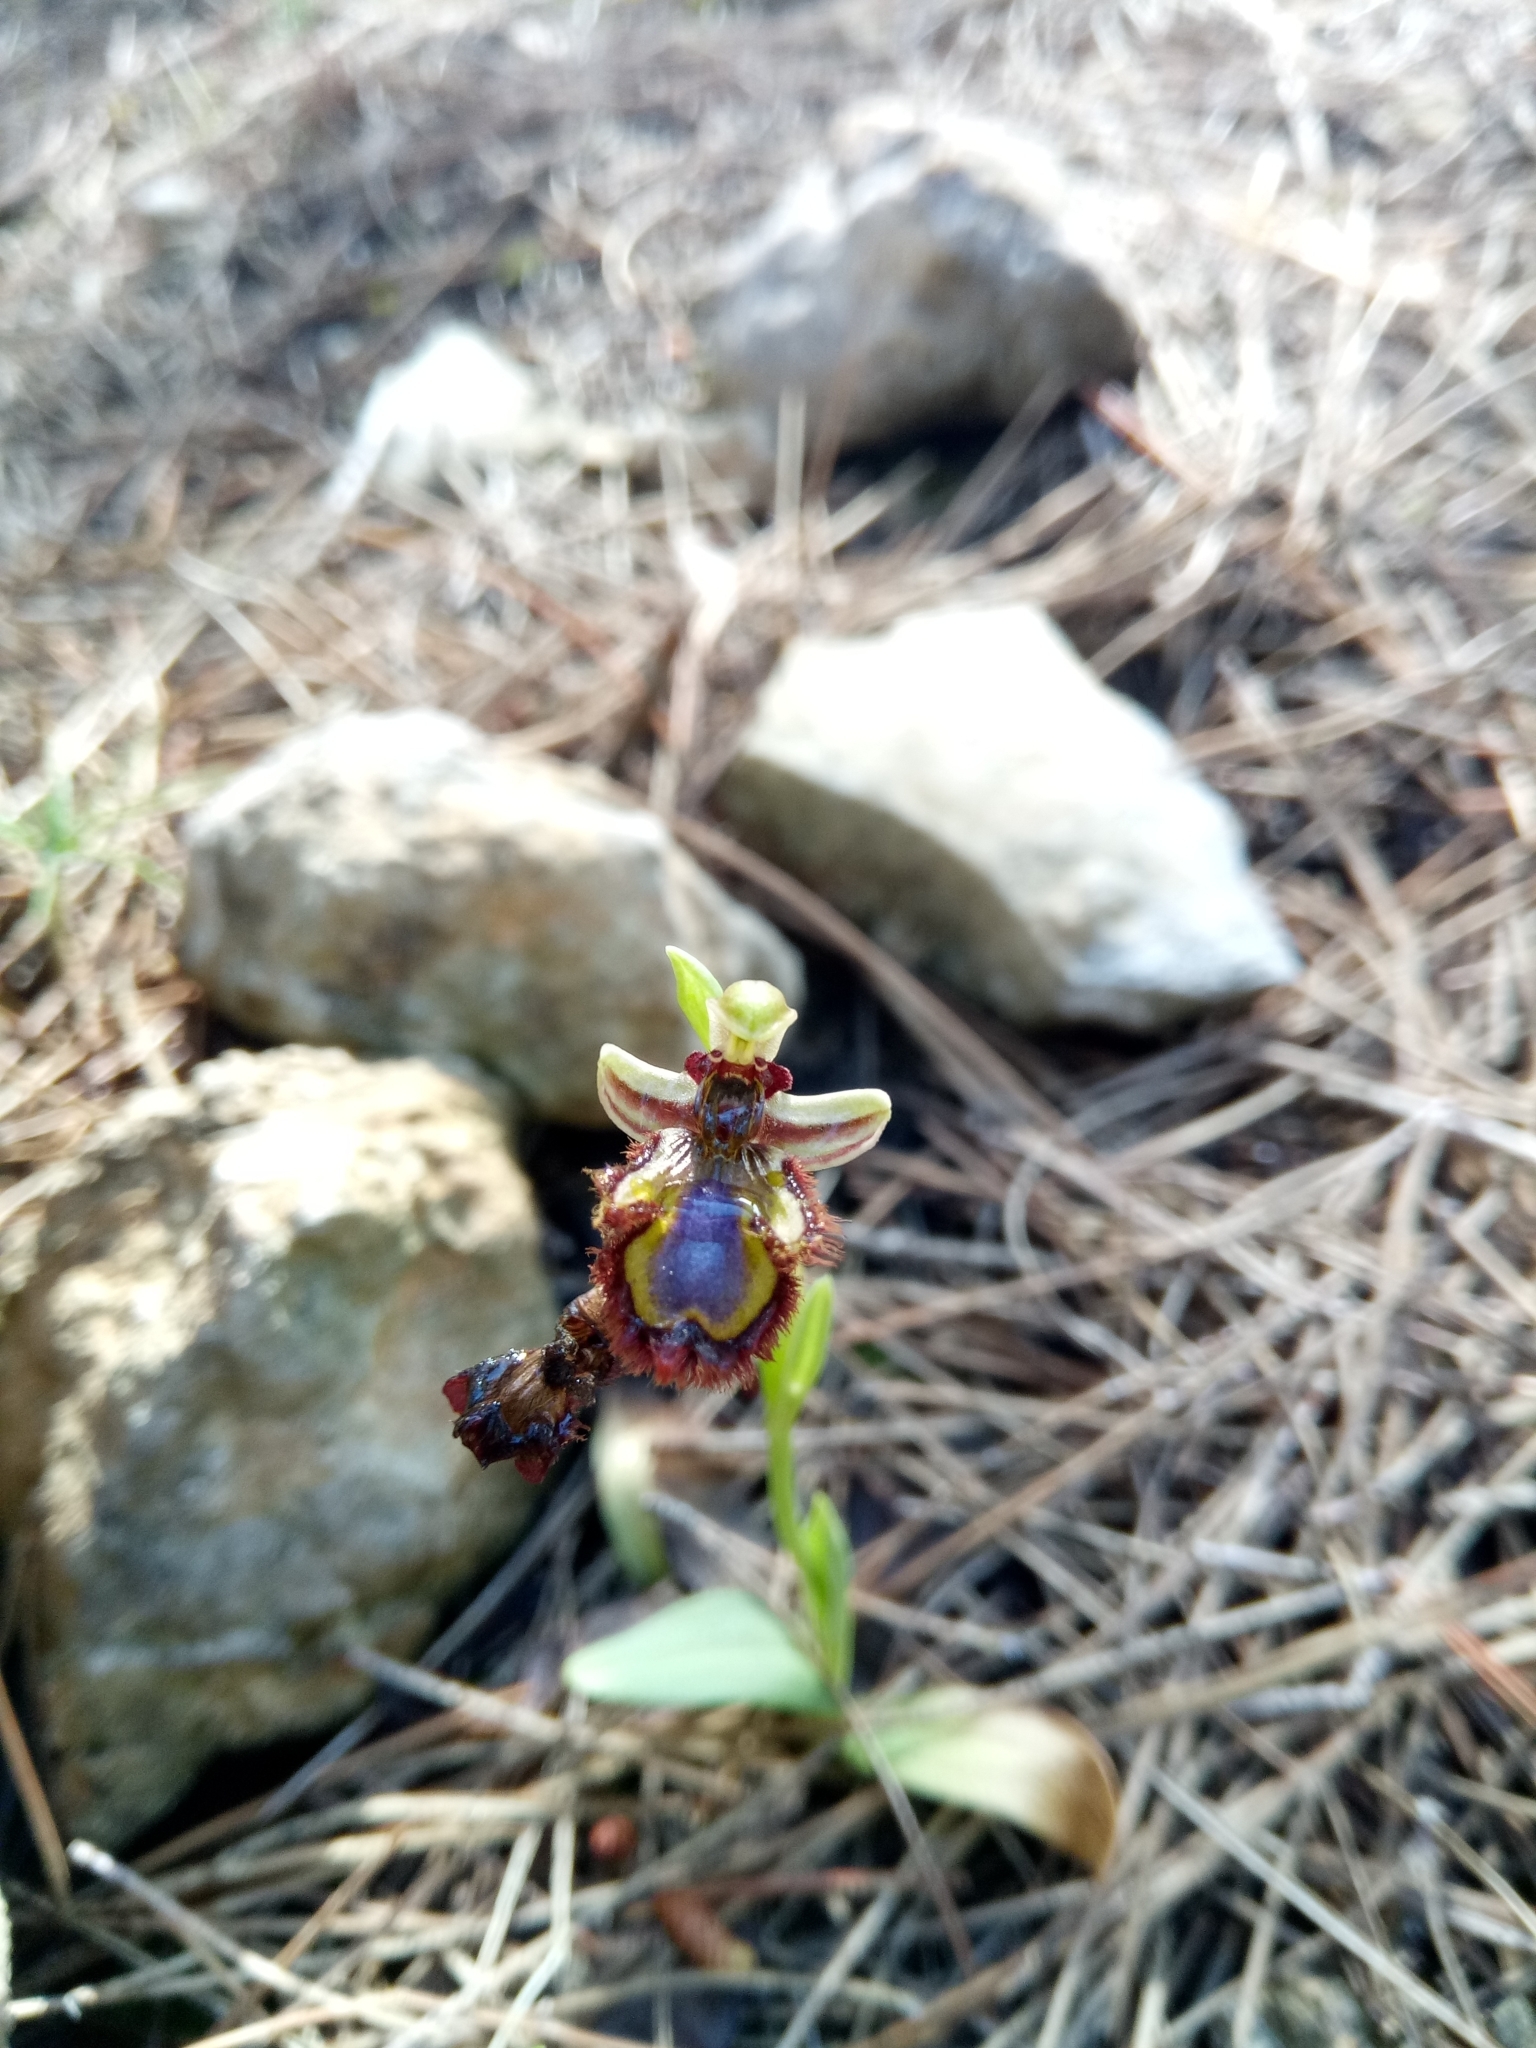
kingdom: Plantae
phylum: Tracheophyta
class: Liliopsida
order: Asparagales
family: Orchidaceae
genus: Ophrys
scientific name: Ophrys speculum
